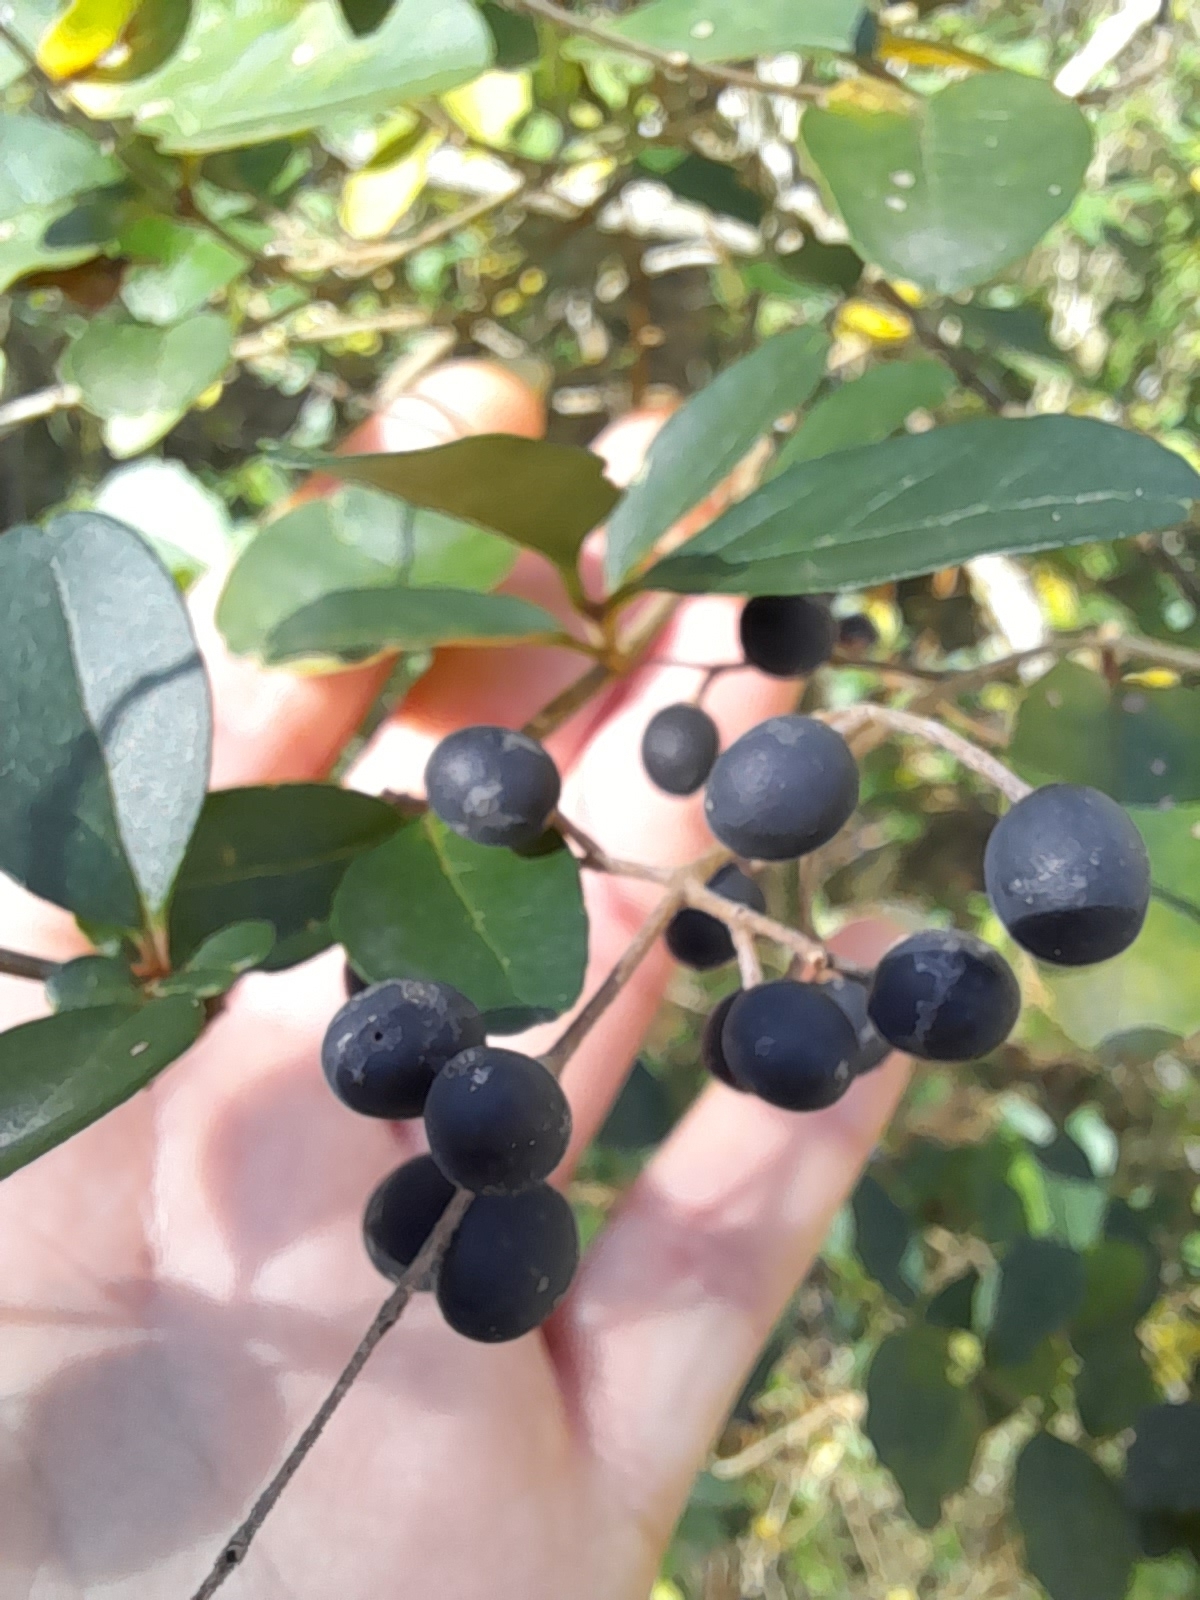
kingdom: Plantae
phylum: Tracheophyta
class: Magnoliopsida
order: Lamiales
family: Oleaceae
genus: Ligustrum
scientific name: Ligustrum sinense
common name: Chinese privet
